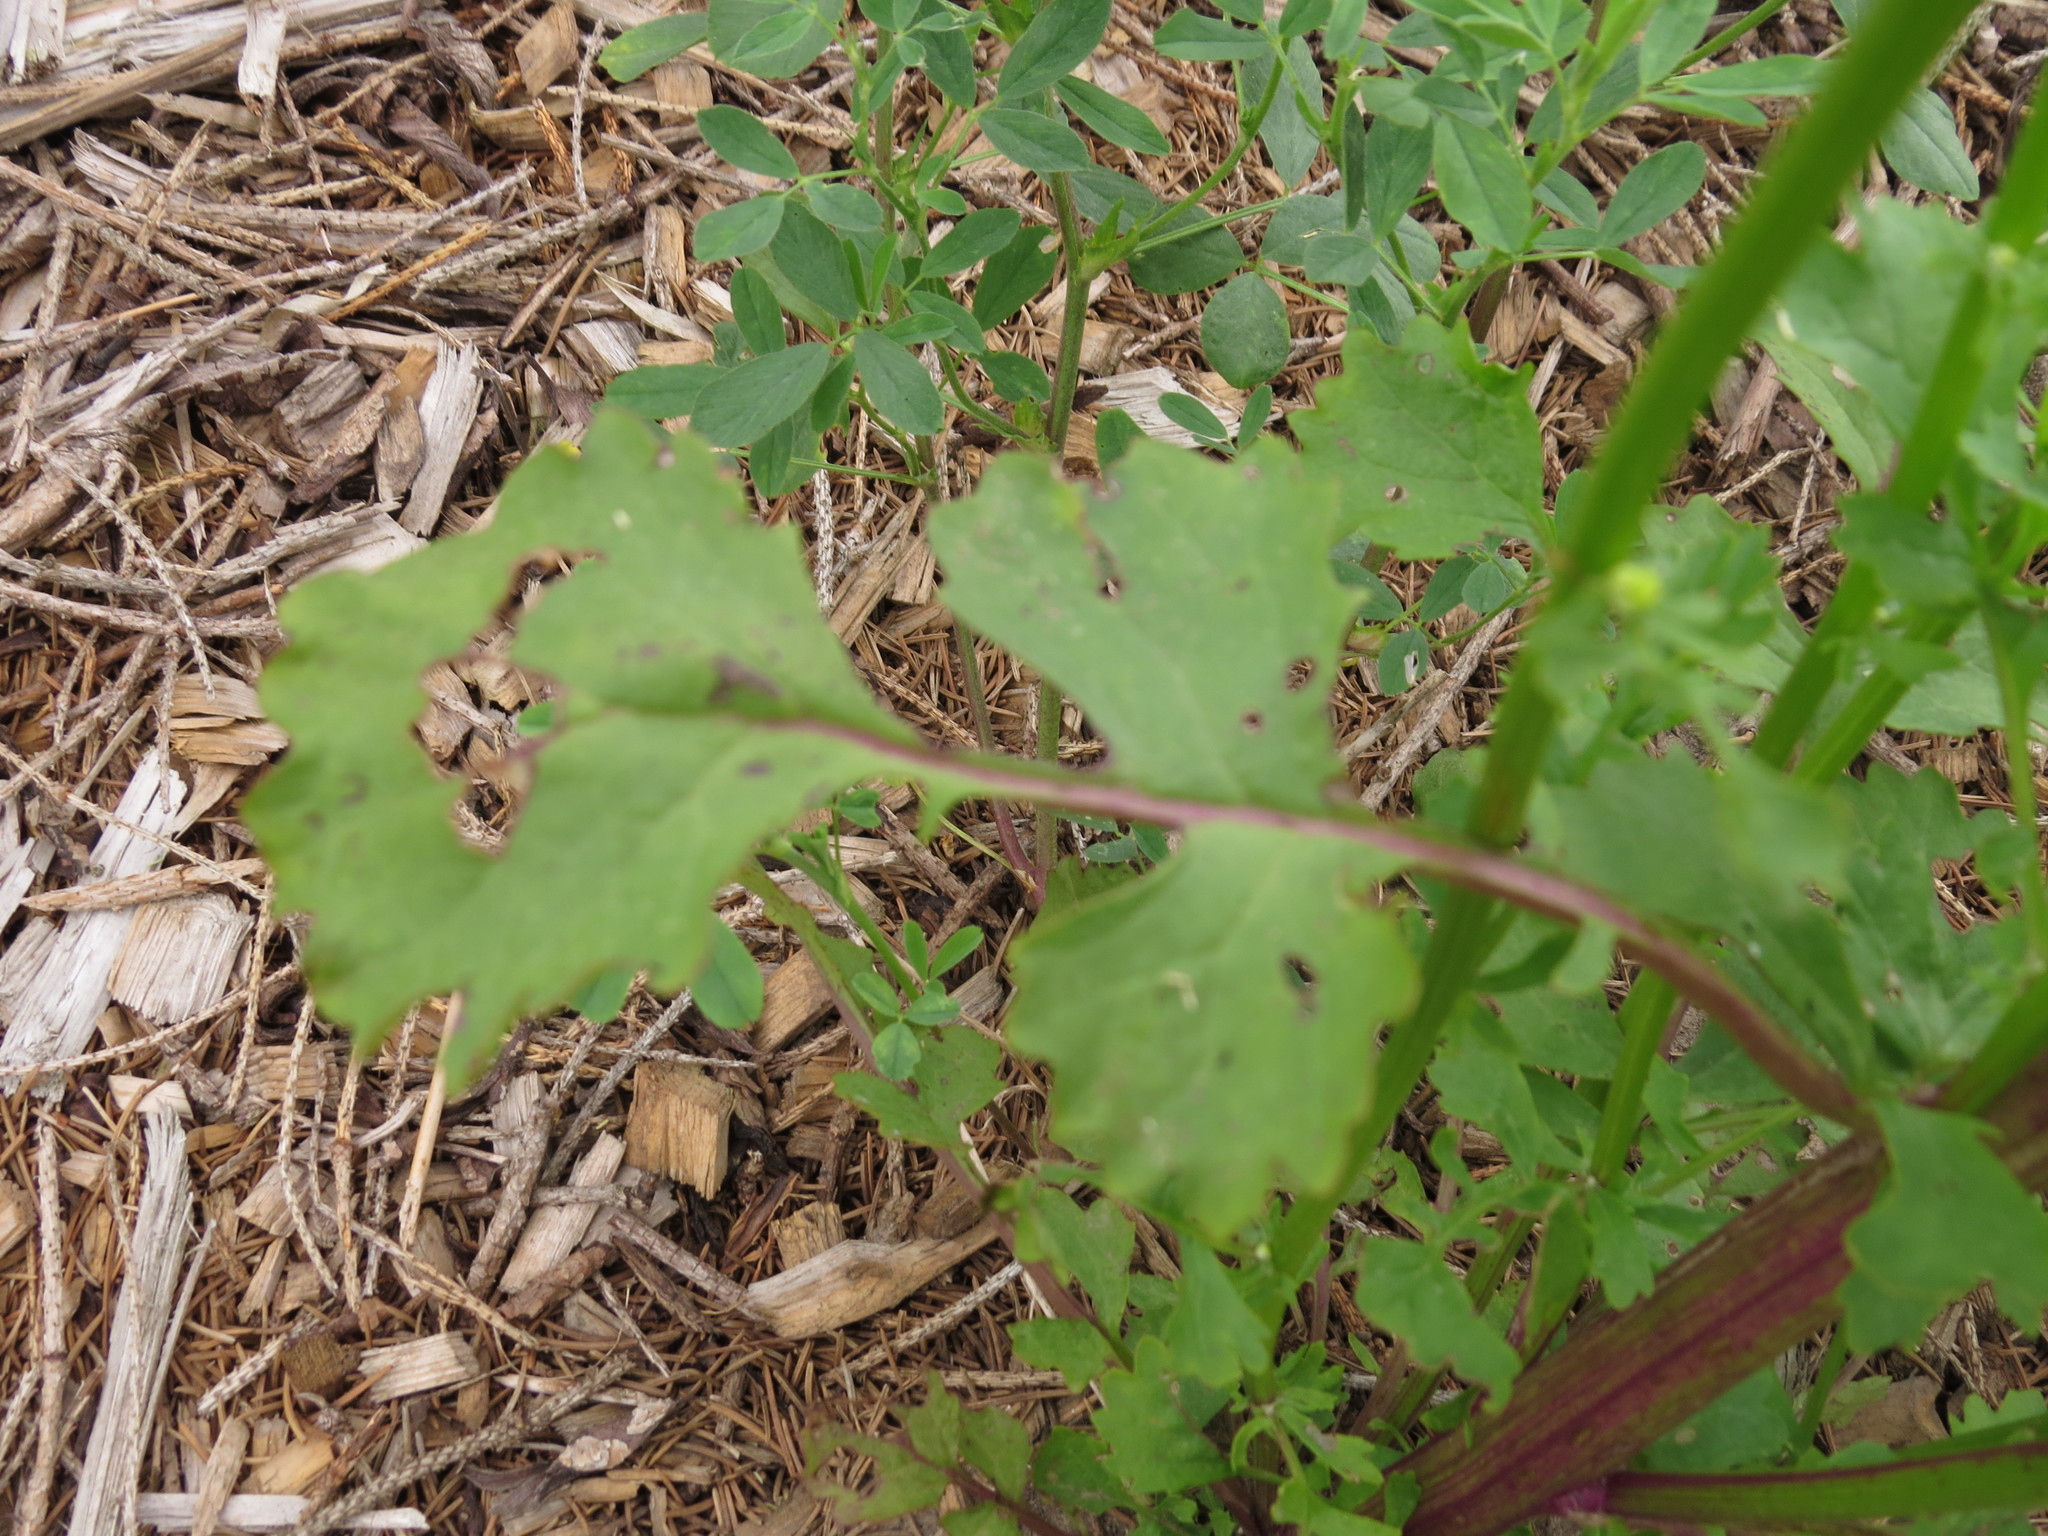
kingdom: Plantae
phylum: Tracheophyta
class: Magnoliopsida
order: Asterales
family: Asteraceae
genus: Packera
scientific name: Packera glabella
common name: Butterweed
